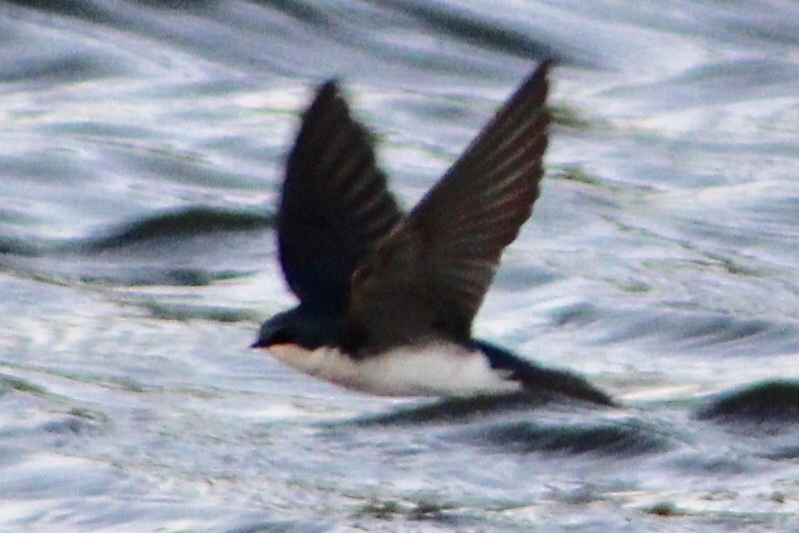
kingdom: Animalia
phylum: Chordata
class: Aves
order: Passeriformes
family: Hirundinidae
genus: Tachycineta
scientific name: Tachycineta bicolor
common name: Tree swallow
